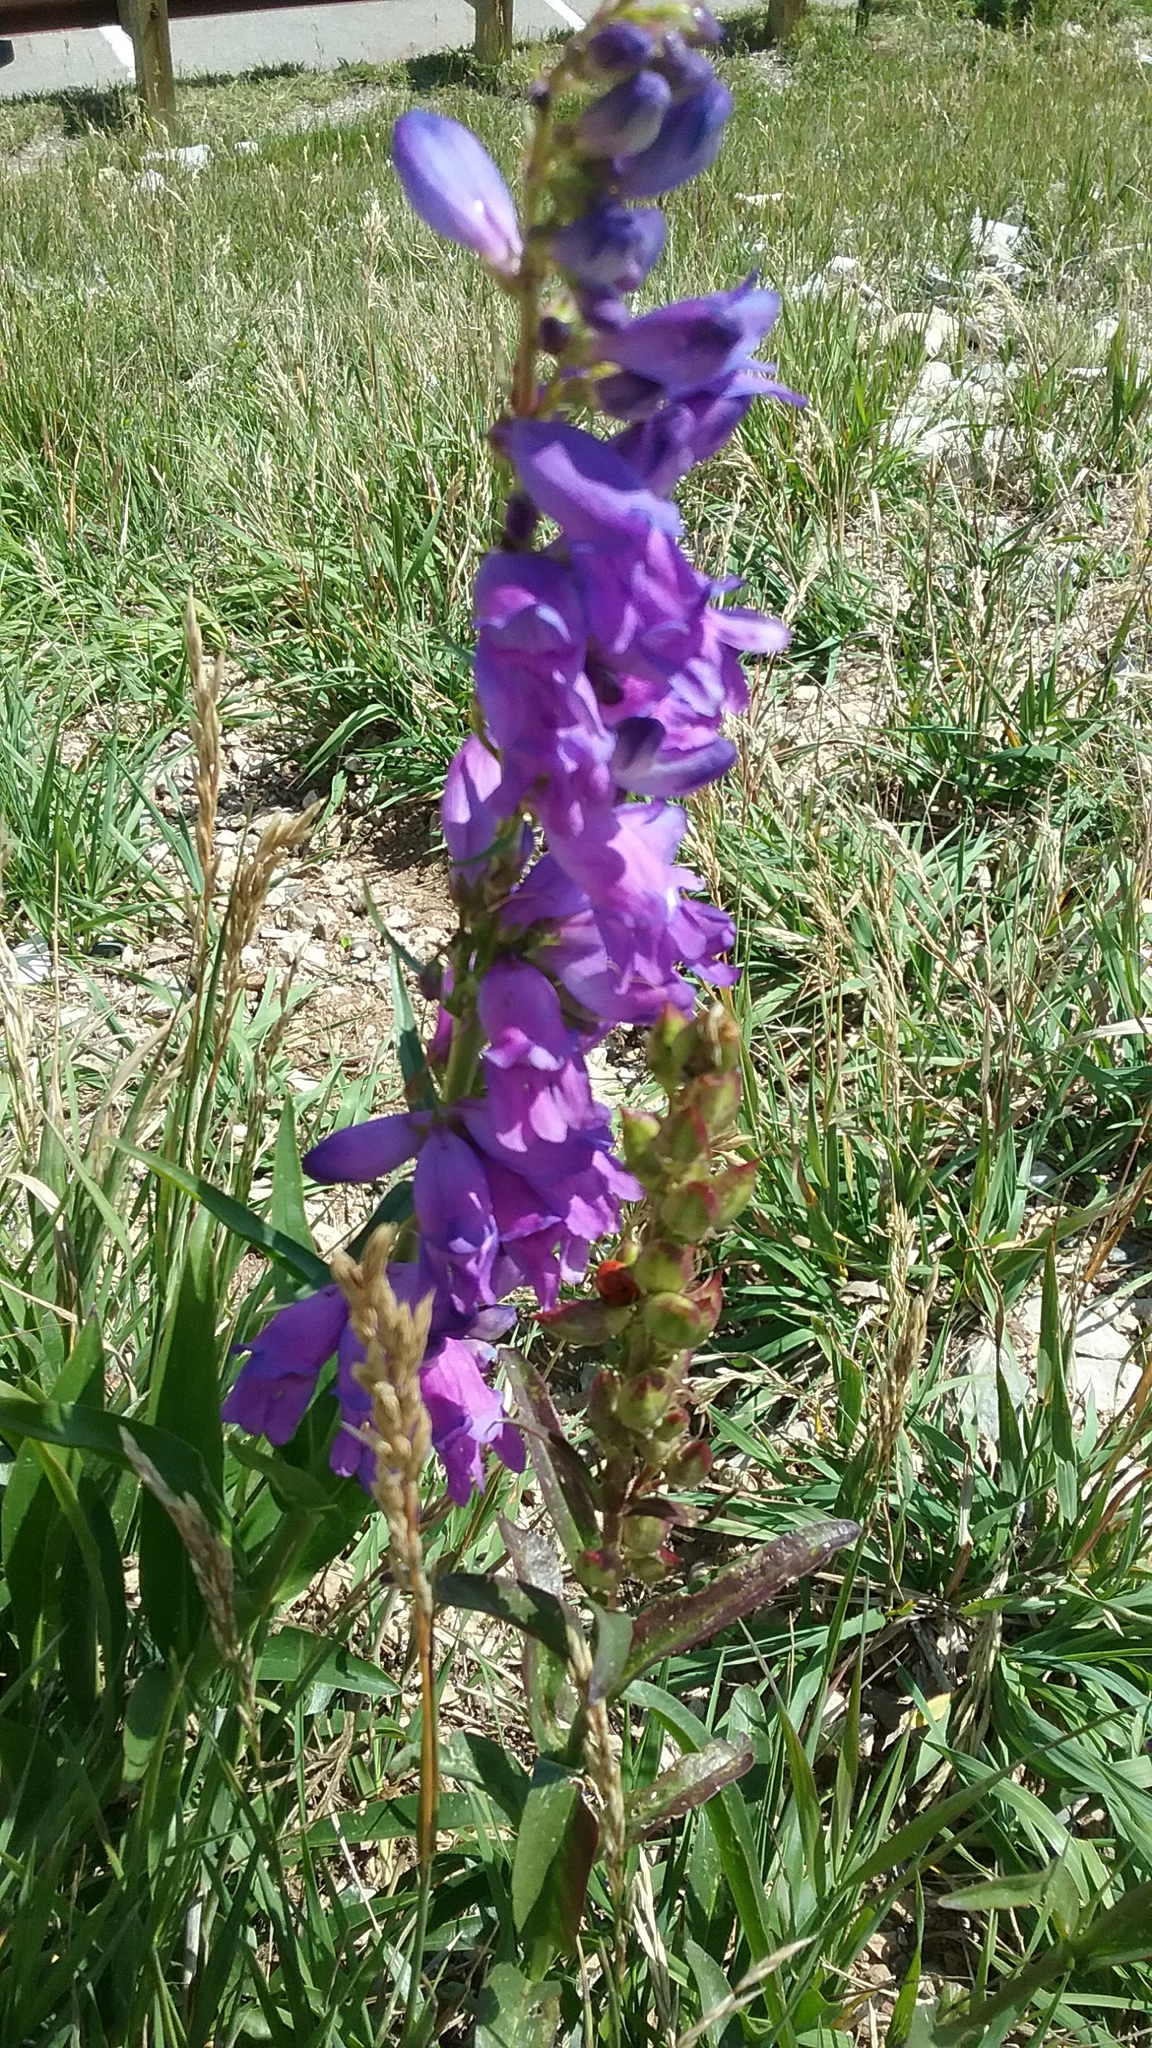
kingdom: Plantae
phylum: Tracheophyta
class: Magnoliopsida
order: Lamiales
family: Plantaginaceae
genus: Penstemon
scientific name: Penstemon strictus
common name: Rocky mountain penstemon
